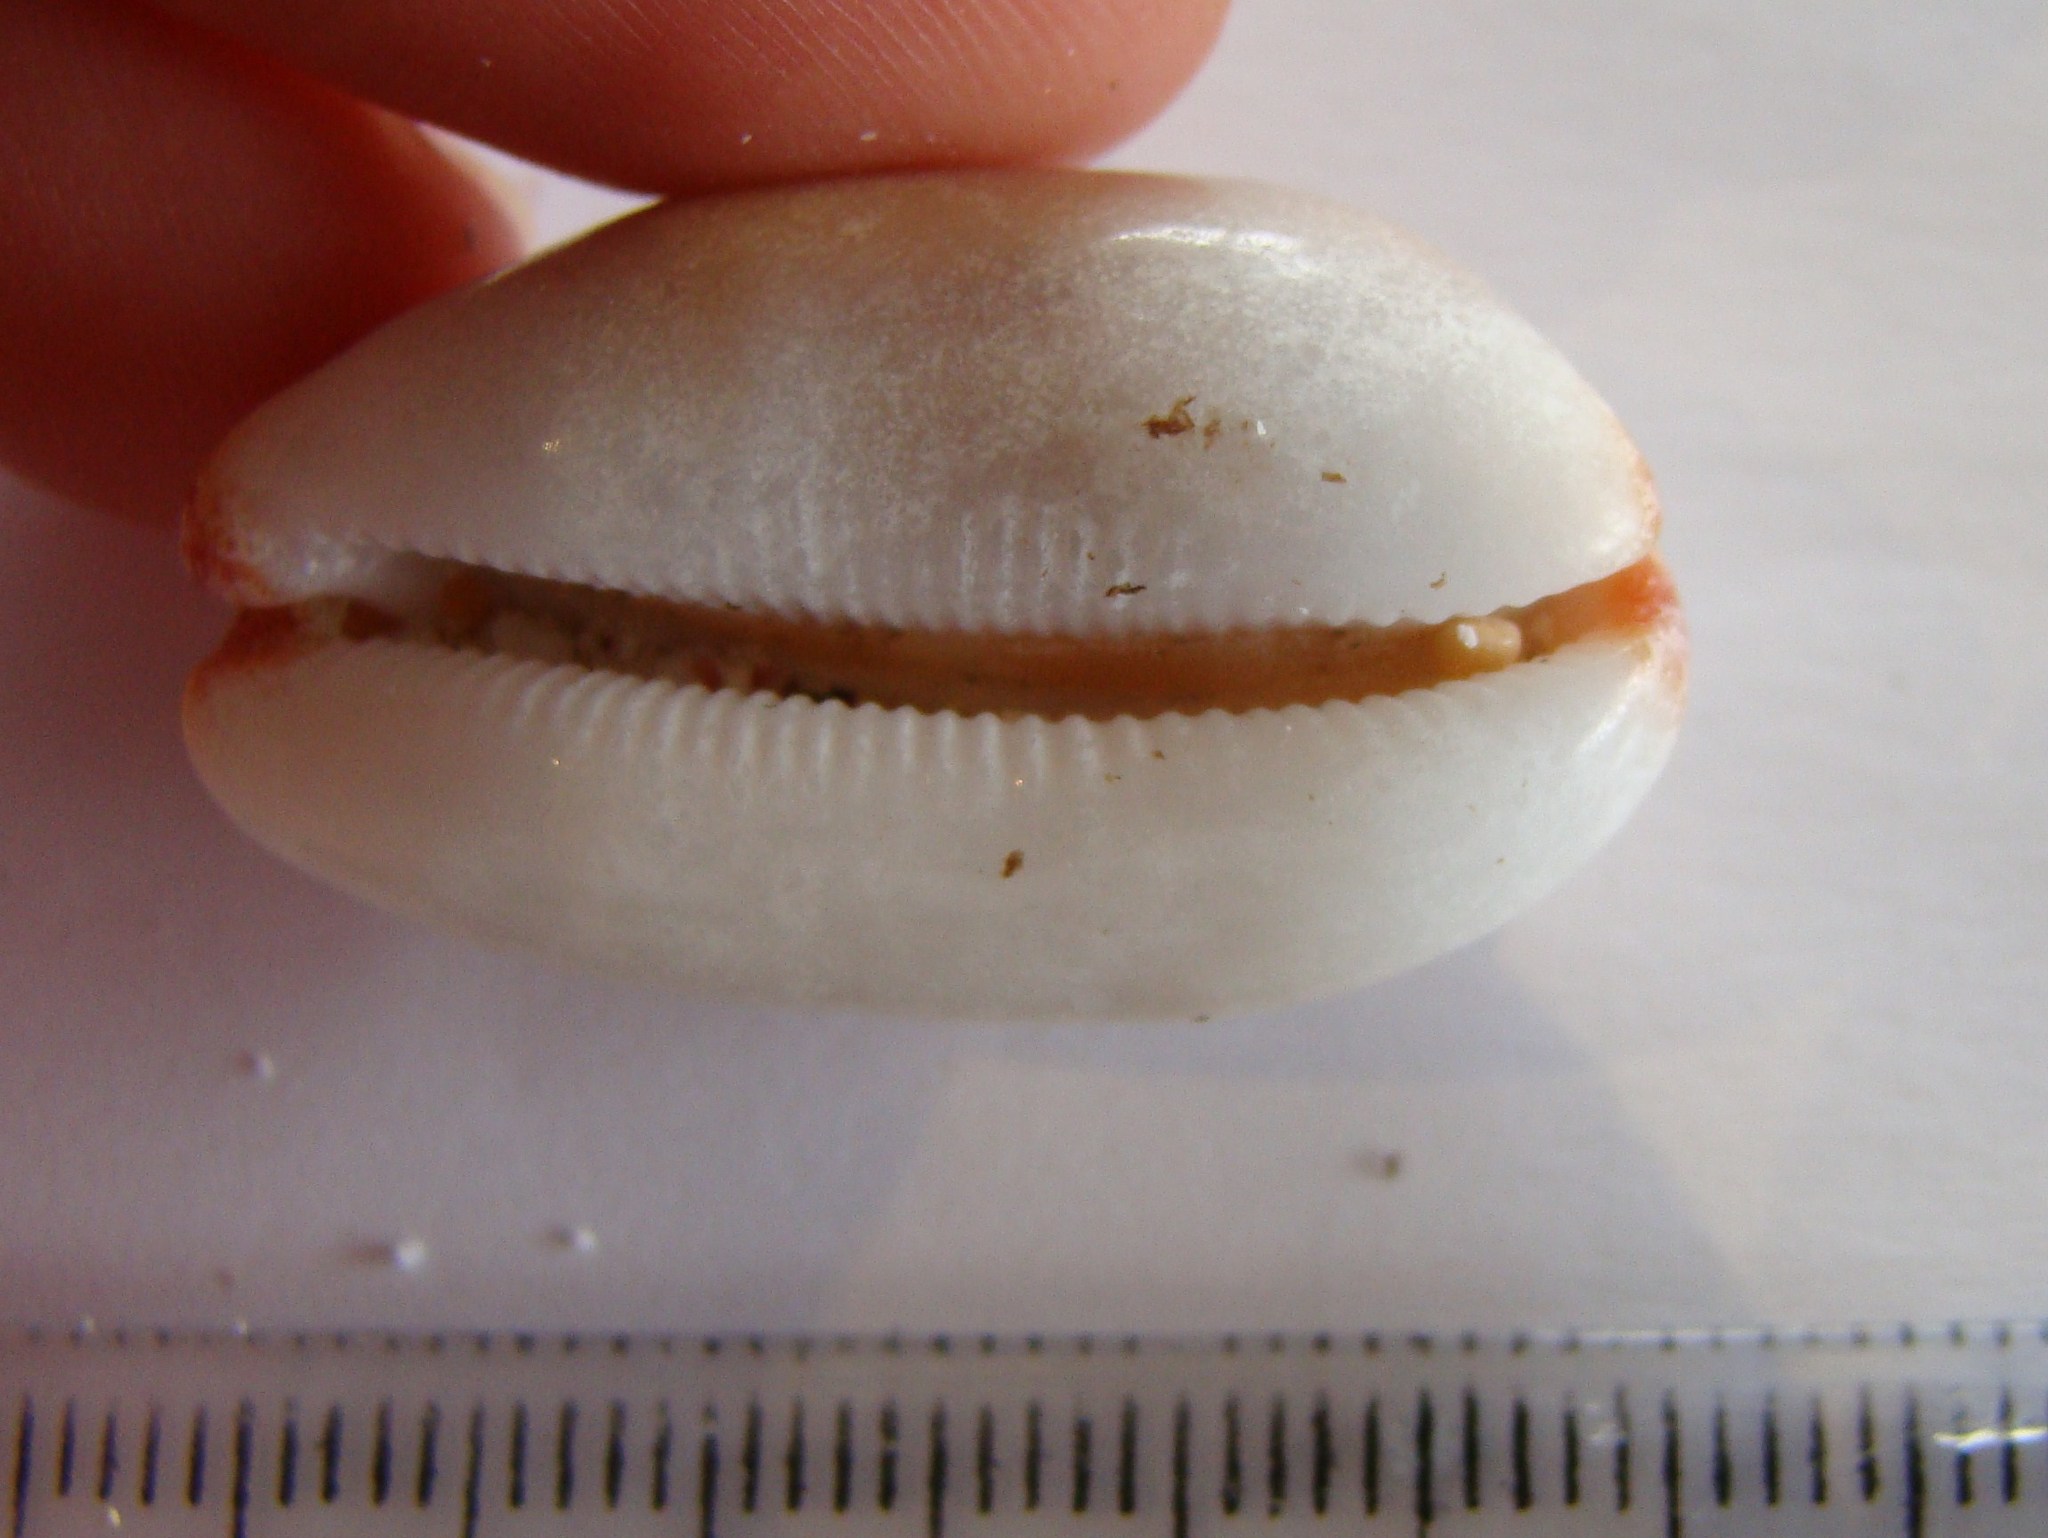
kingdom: Animalia
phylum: Mollusca
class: Gastropoda
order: Littorinimorpha
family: Cypraeidae
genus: Luria
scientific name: Luria isabella
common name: Isabell cowry
